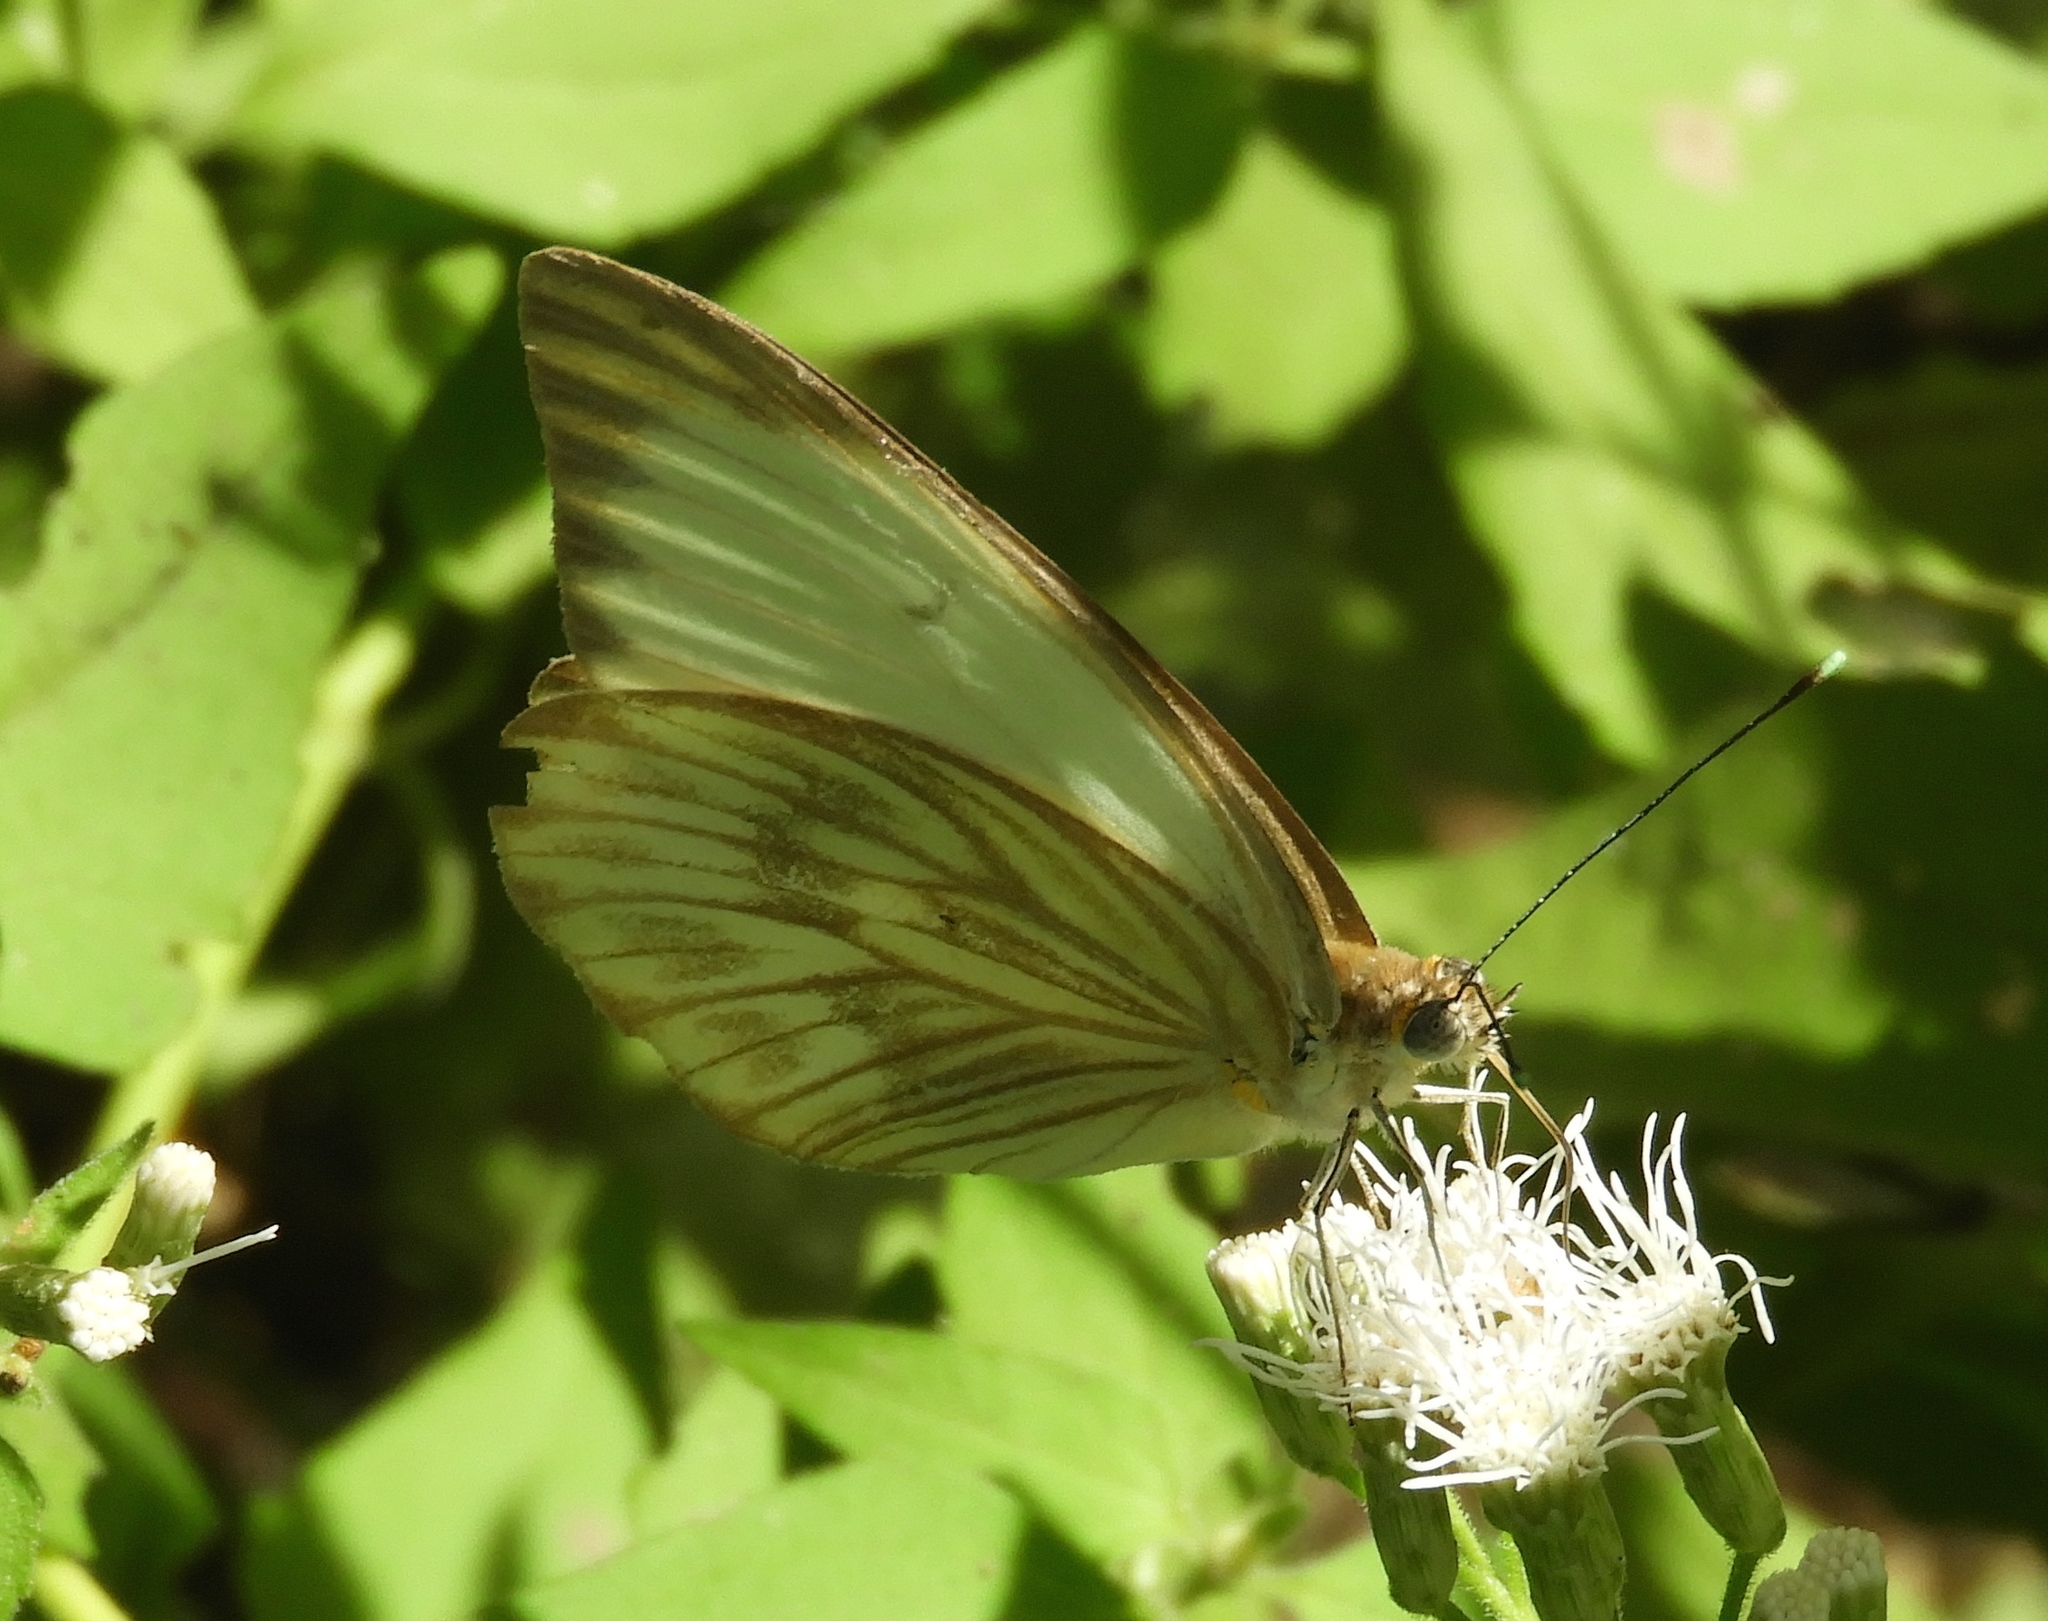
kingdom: Animalia
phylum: Arthropoda
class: Insecta
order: Lepidoptera
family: Pieridae
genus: Ascia
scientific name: Ascia monuste
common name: Great southern white
